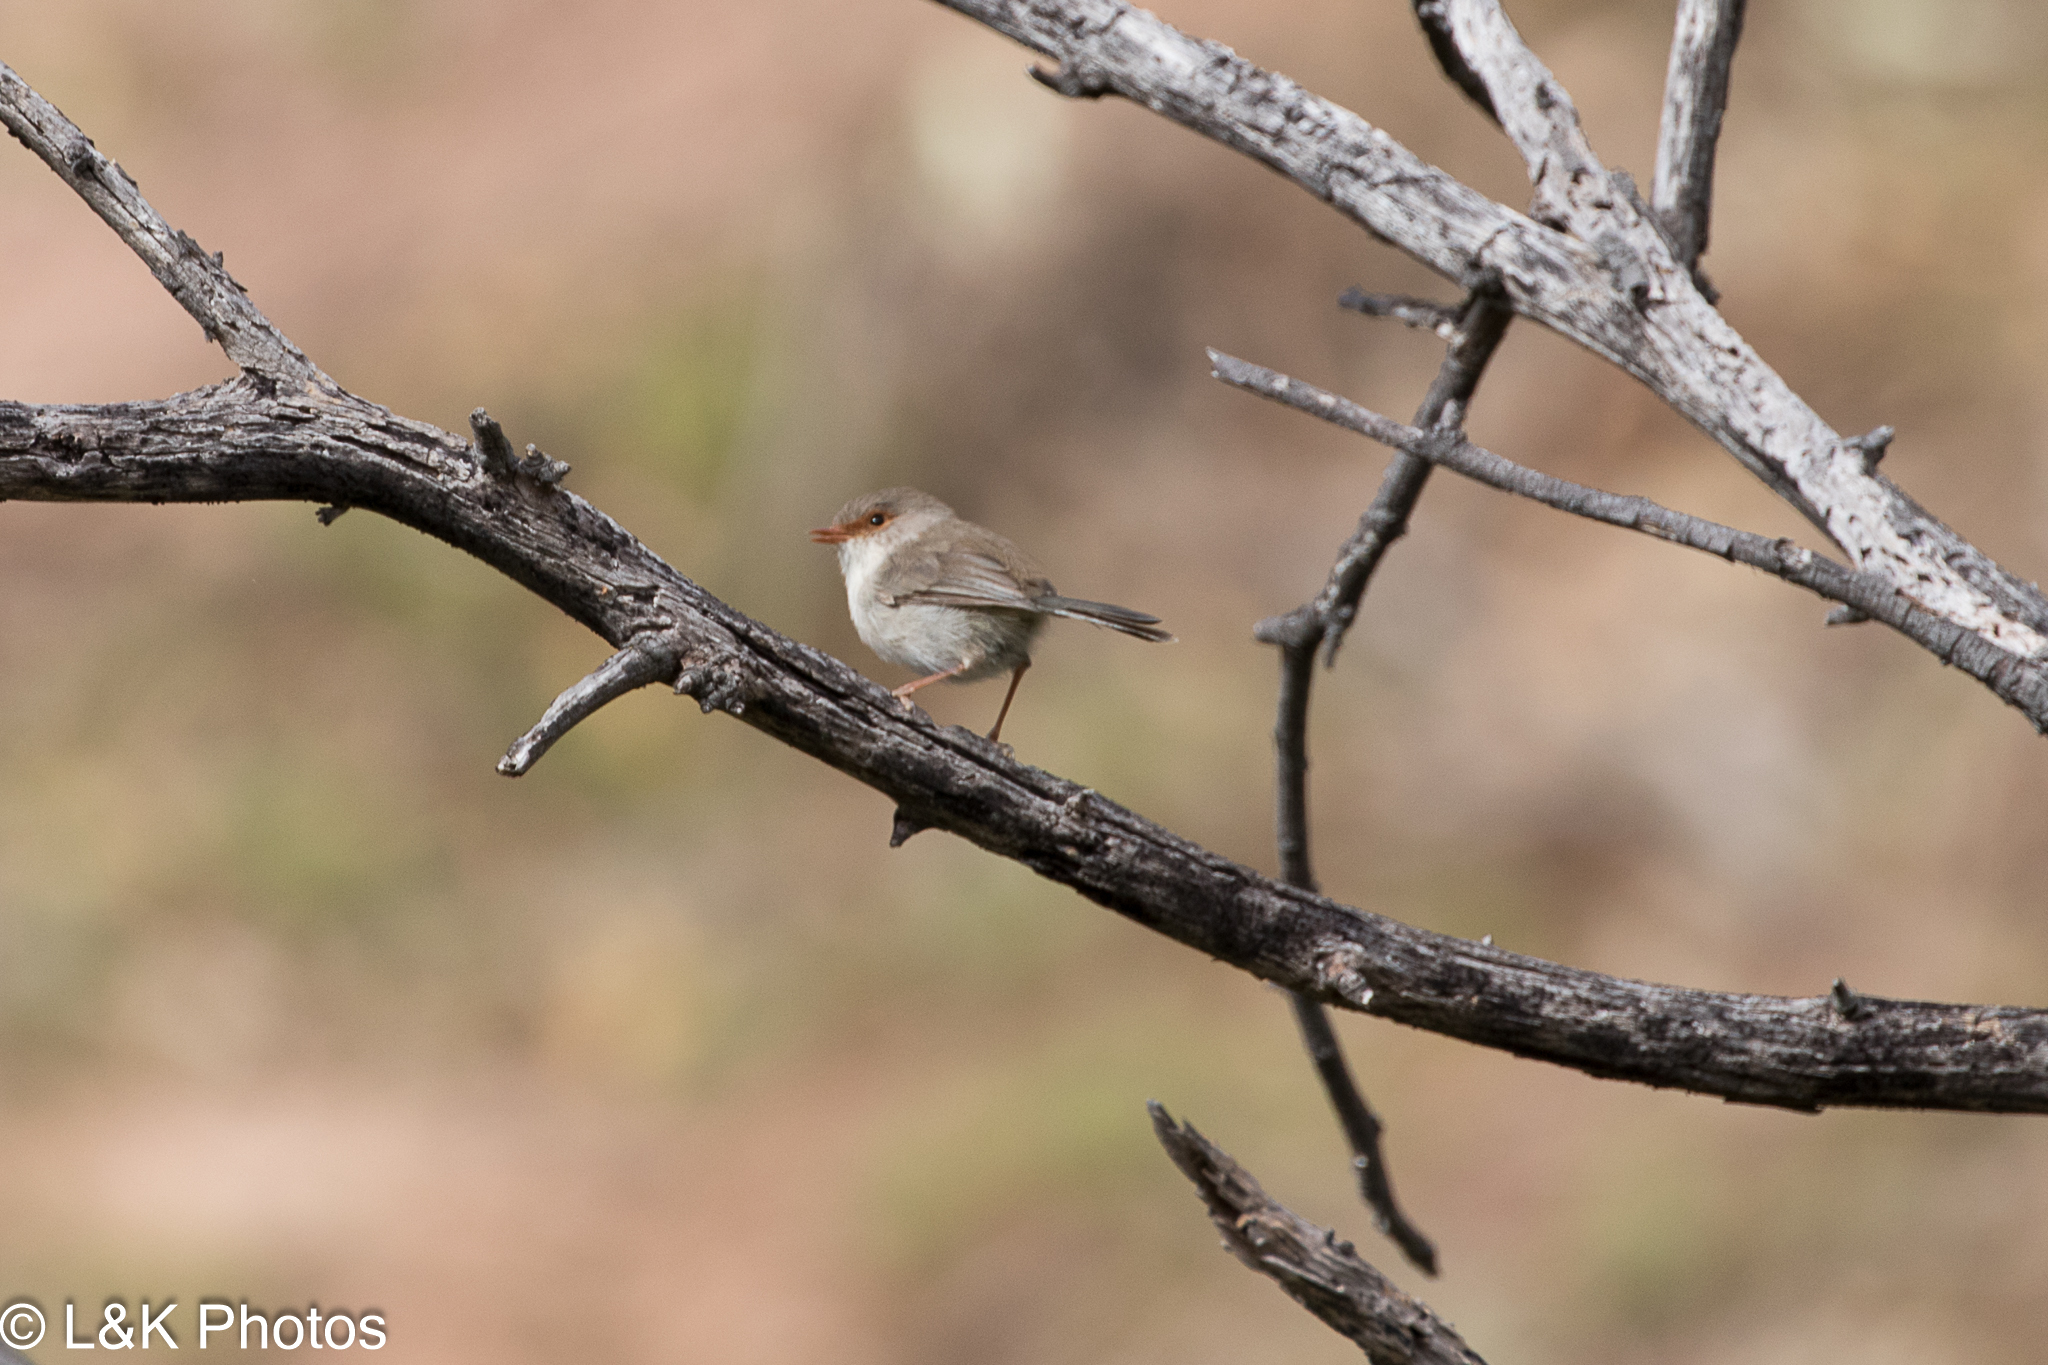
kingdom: Animalia
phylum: Chordata
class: Aves
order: Passeriformes
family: Maluridae
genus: Malurus
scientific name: Malurus cyaneus
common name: Superb fairywren
